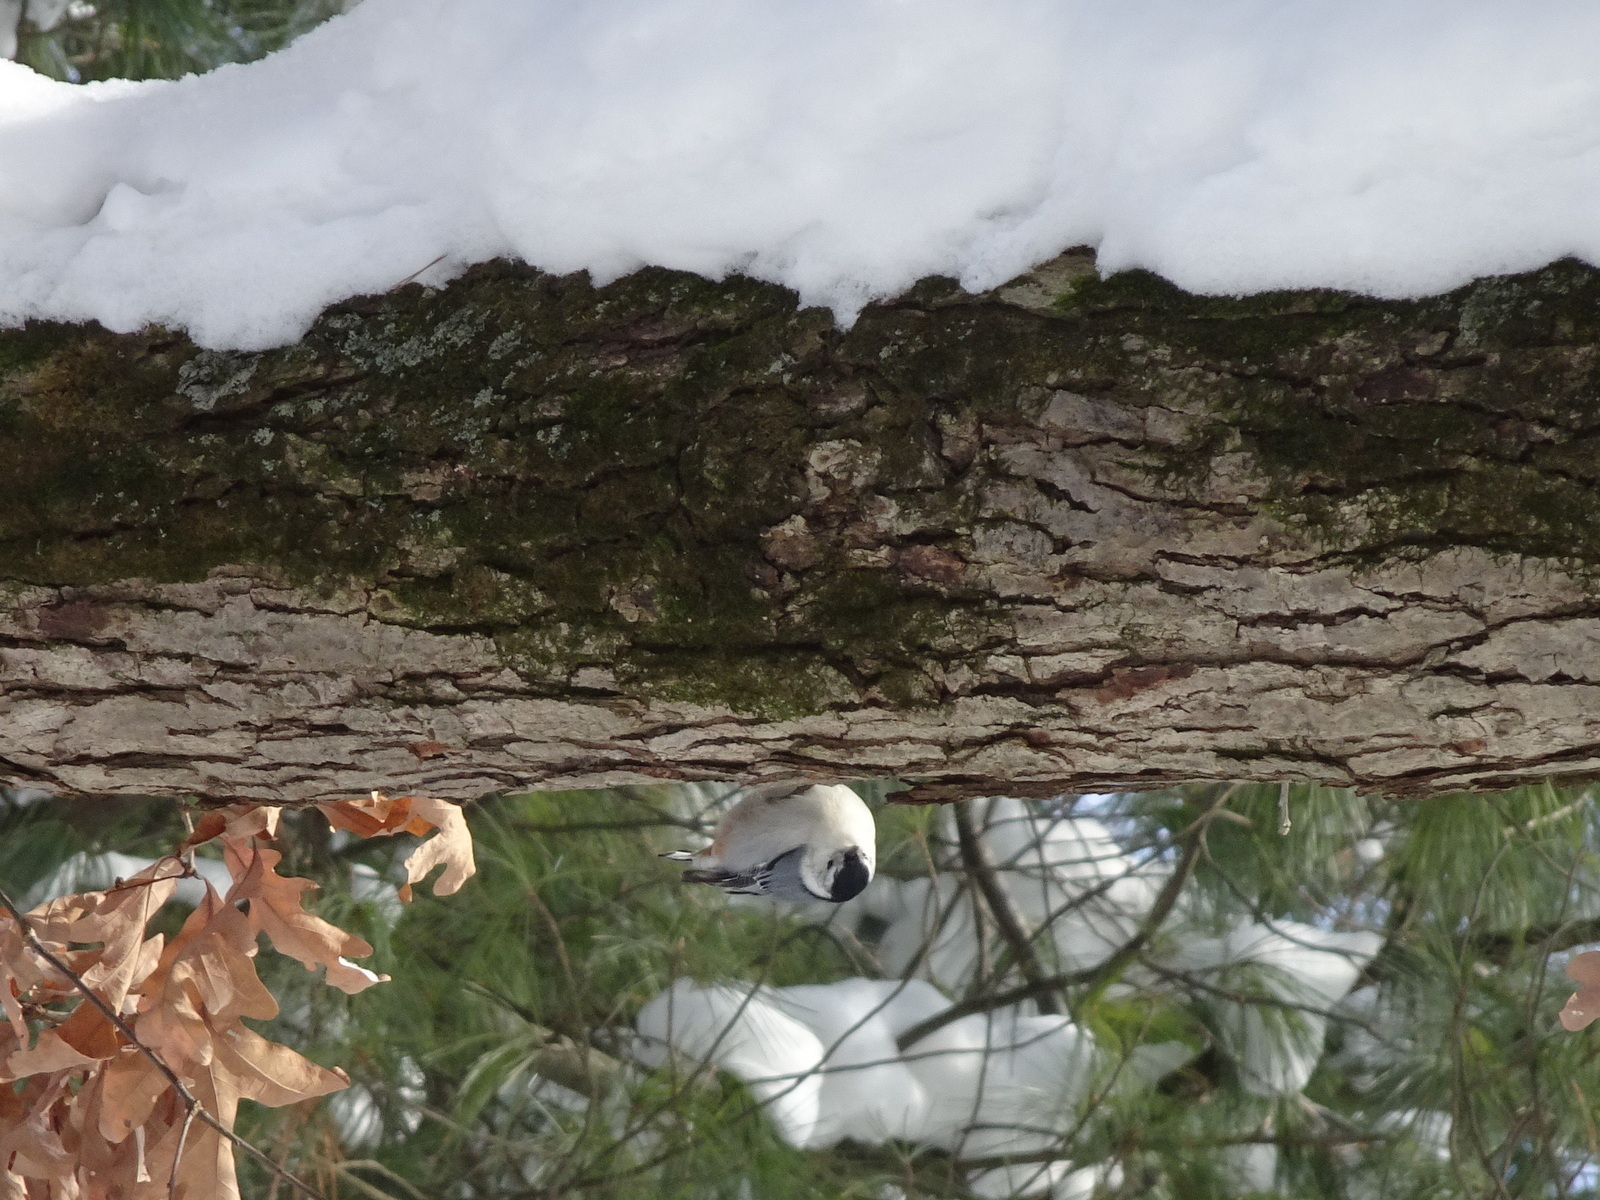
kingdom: Animalia
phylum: Chordata
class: Aves
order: Passeriformes
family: Sittidae
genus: Sitta
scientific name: Sitta carolinensis
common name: White-breasted nuthatch
